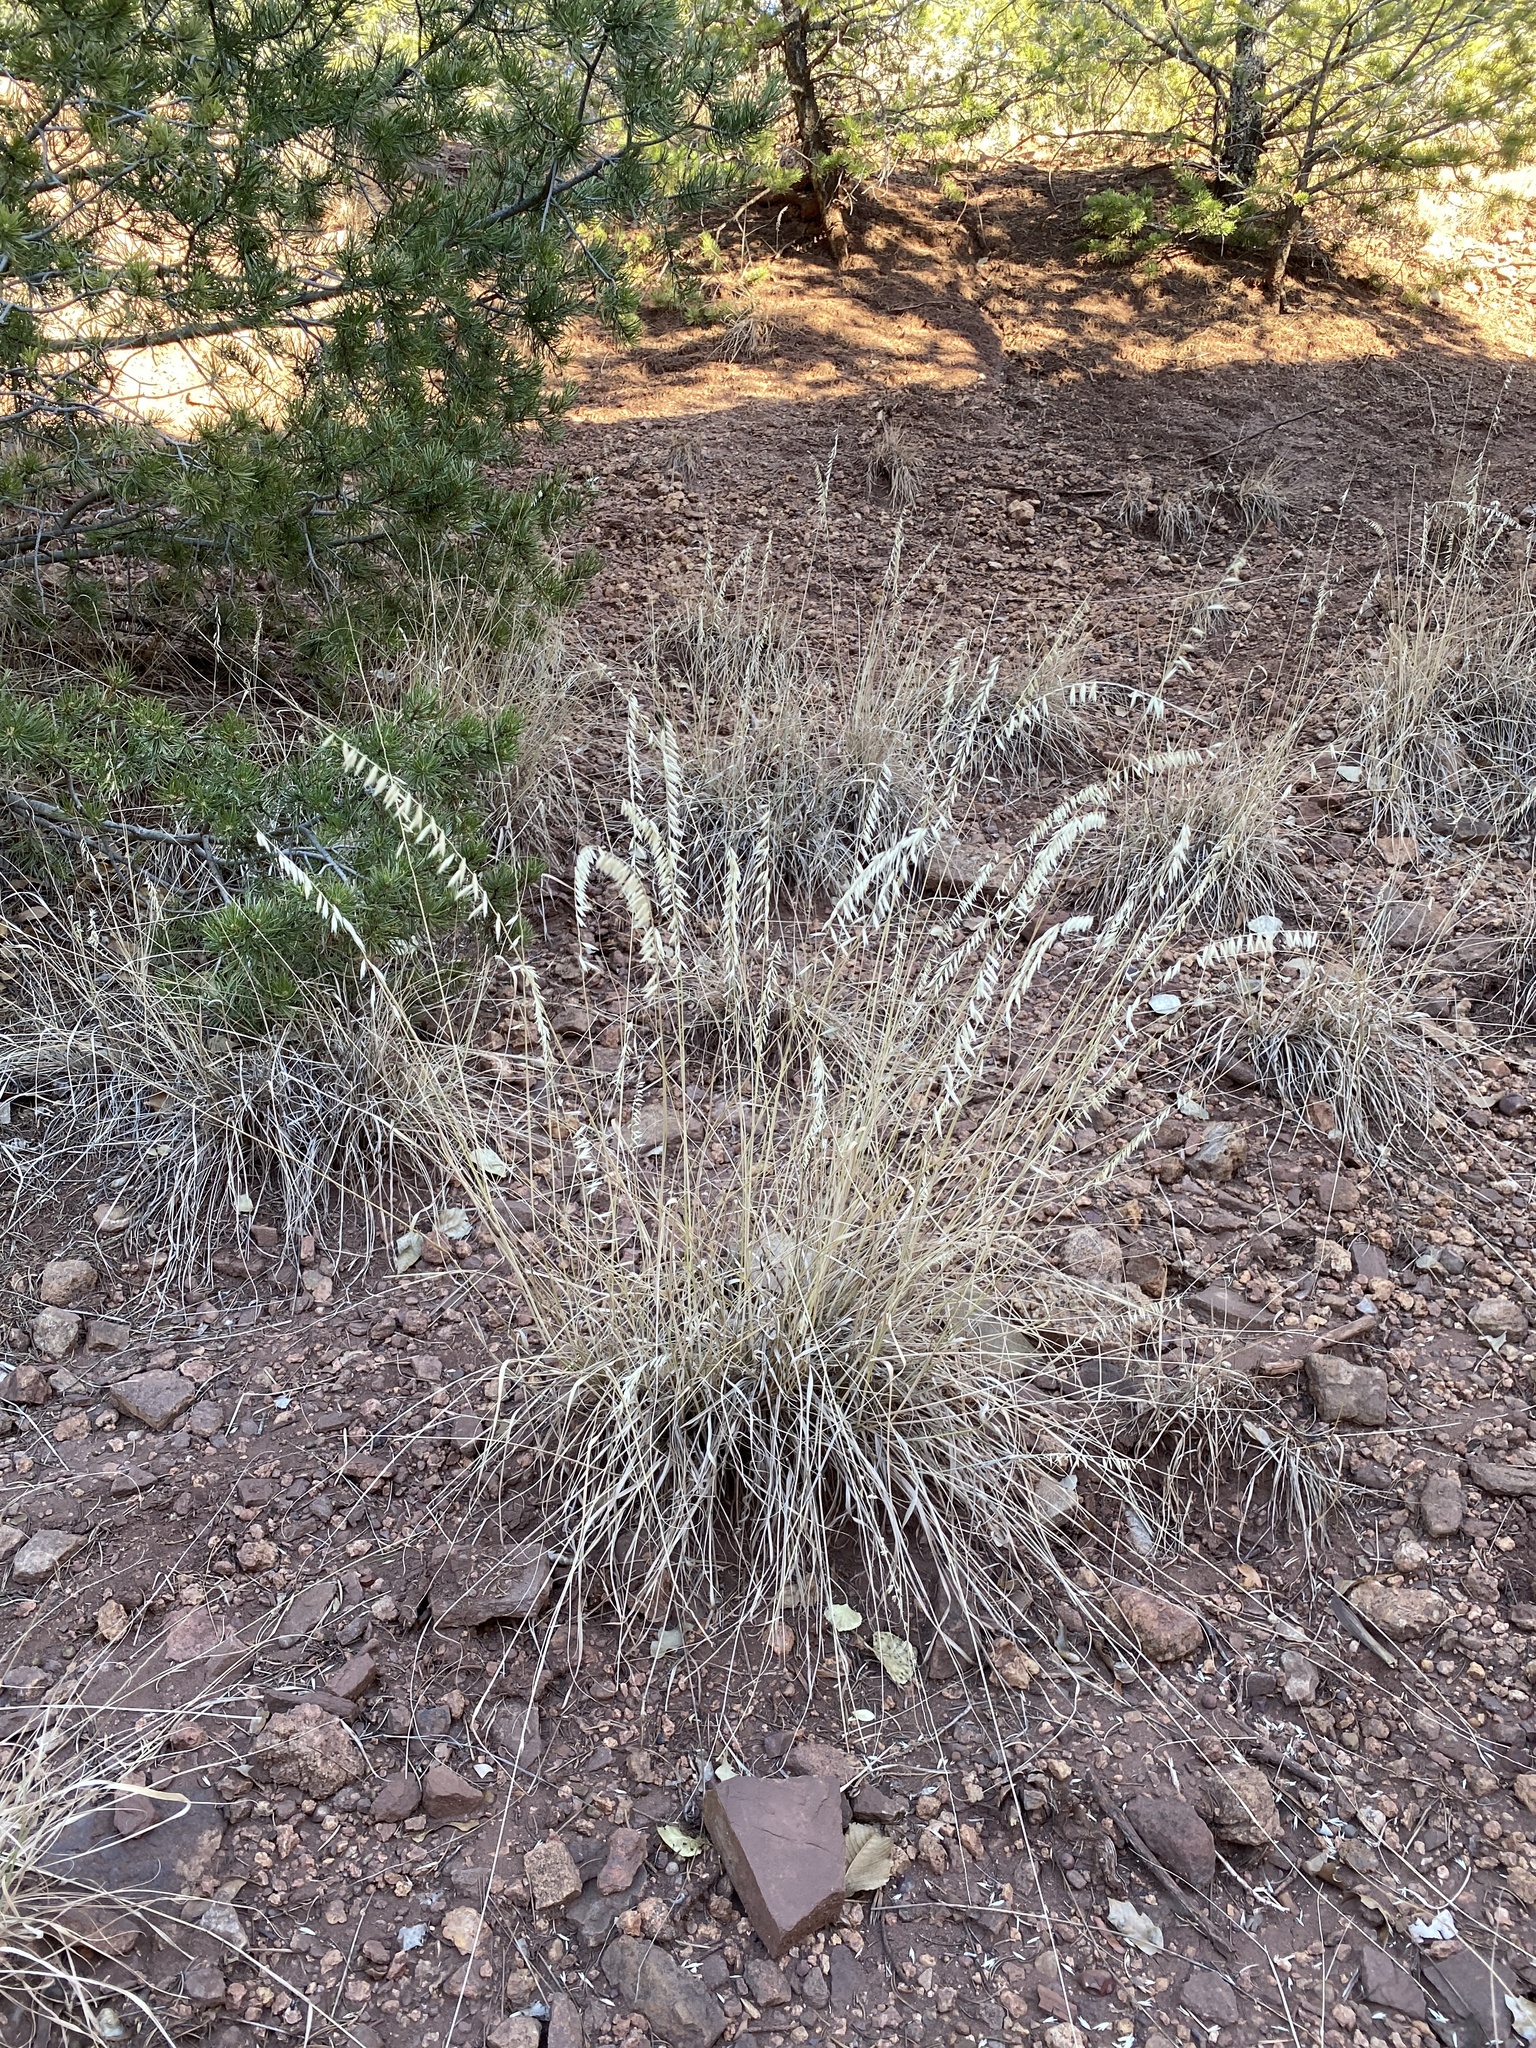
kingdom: Plantae
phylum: Tracheophyta
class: Liliopsida
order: Poales
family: Poaceae
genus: Bouteloua
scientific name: Bouteloua curtipendula
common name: Side-oats grama
